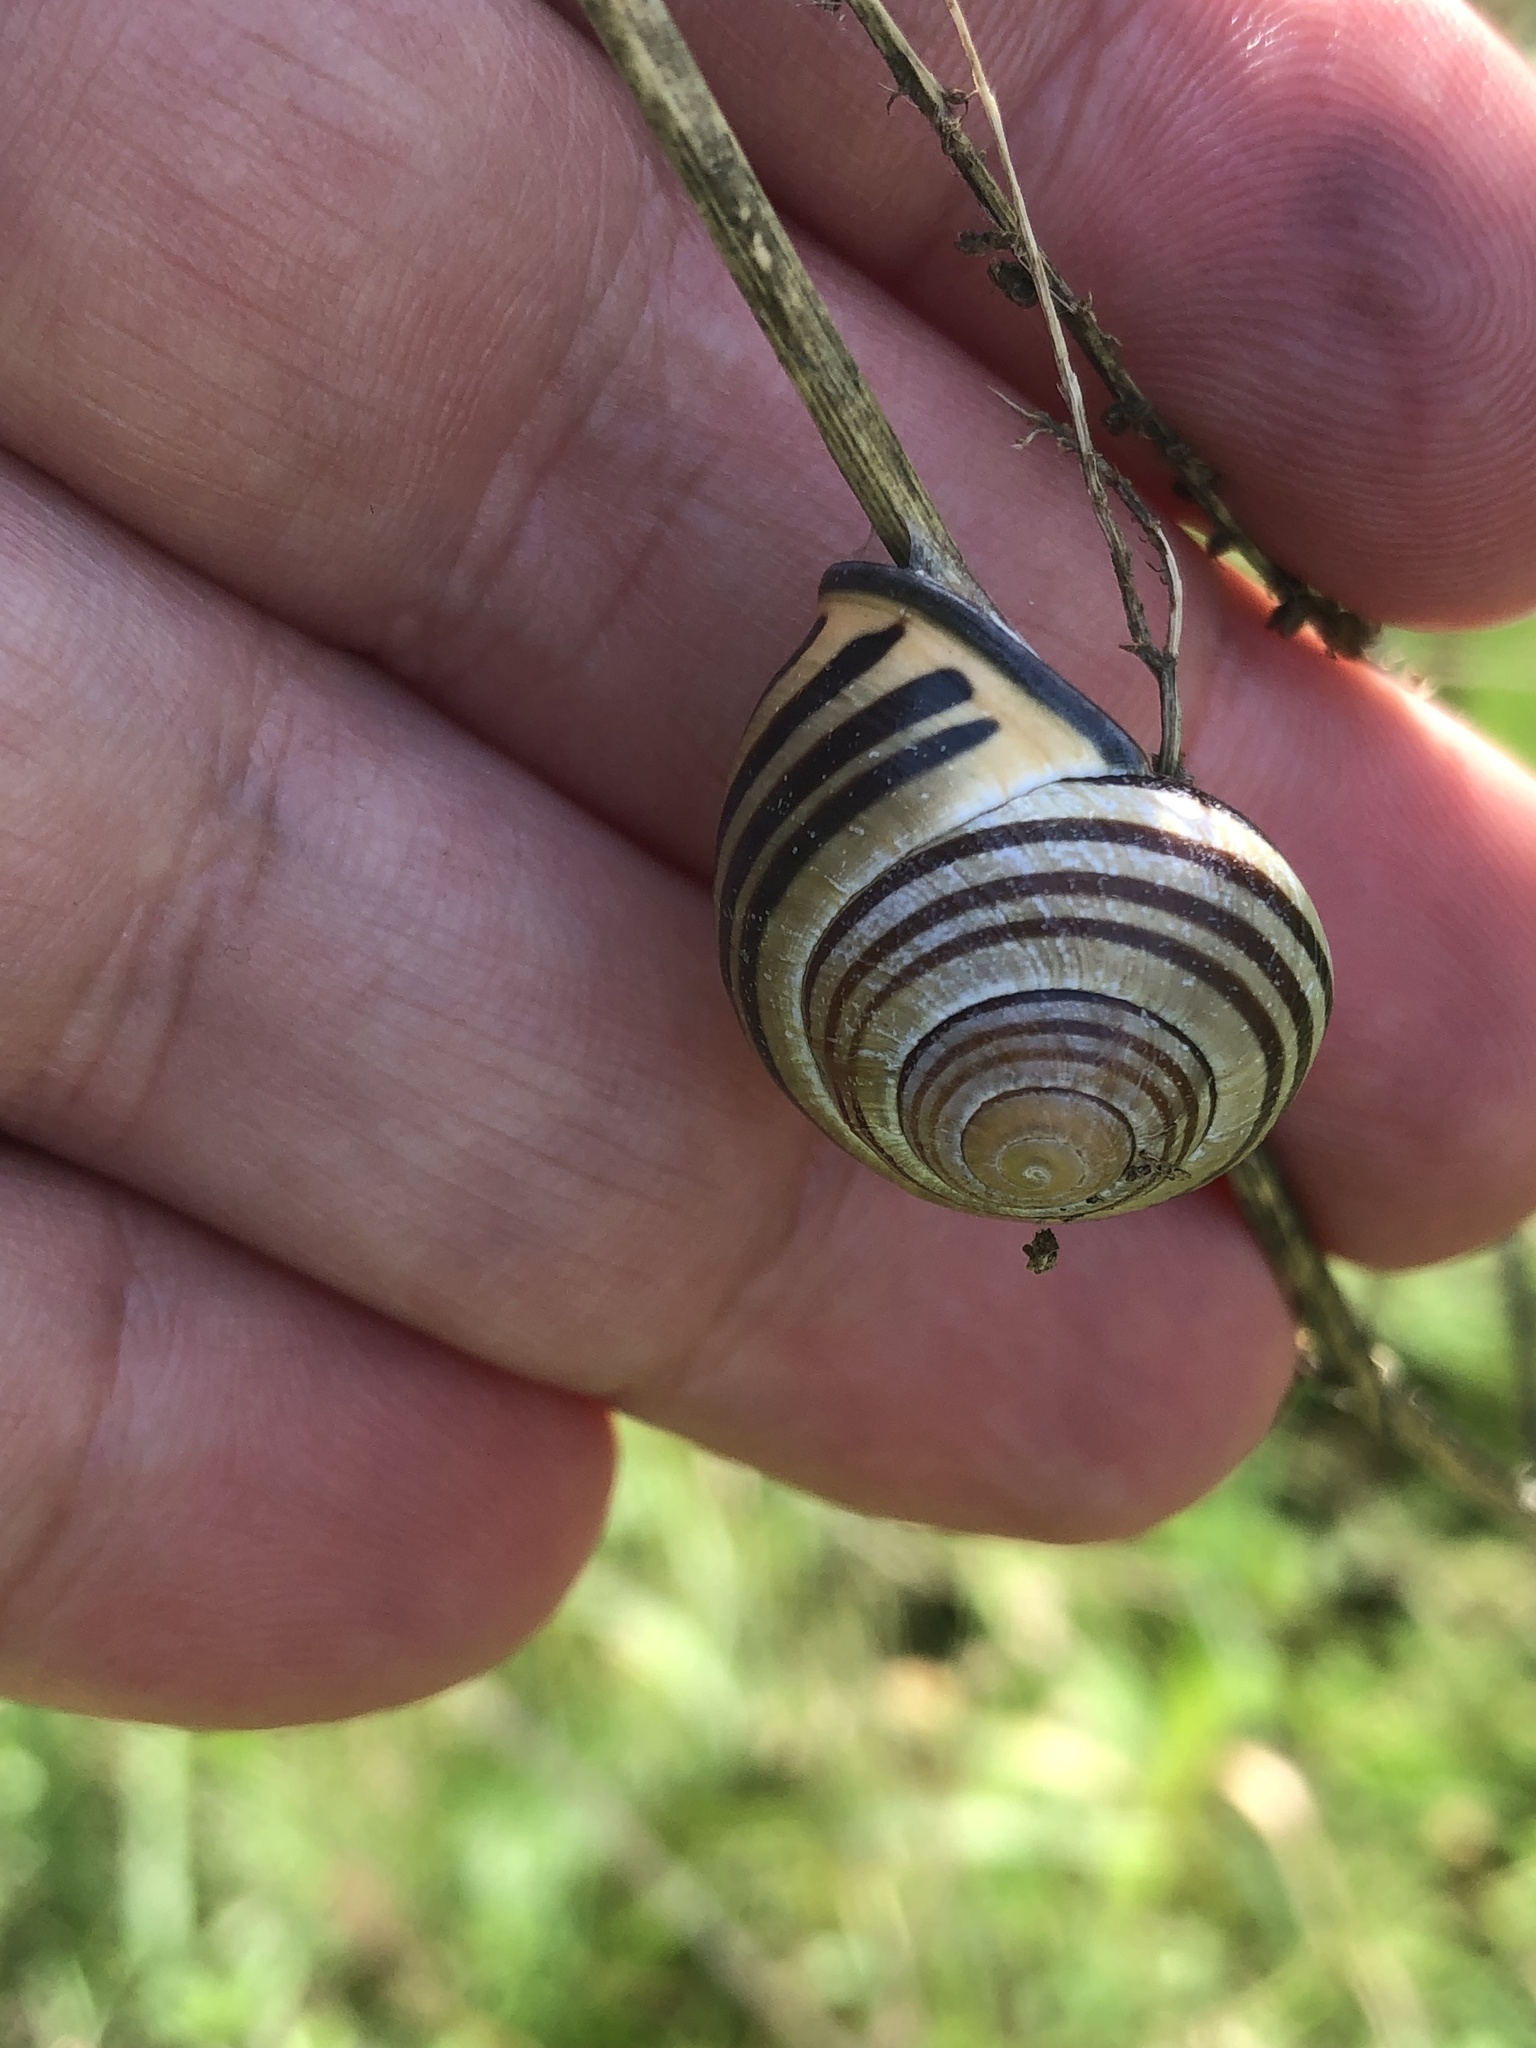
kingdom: Animalia
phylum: Mollusca
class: Gastropoda
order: Stylommatophora
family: Helicidae
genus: Cepaea
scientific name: Cepaea nemoralis
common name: Grovesnail
